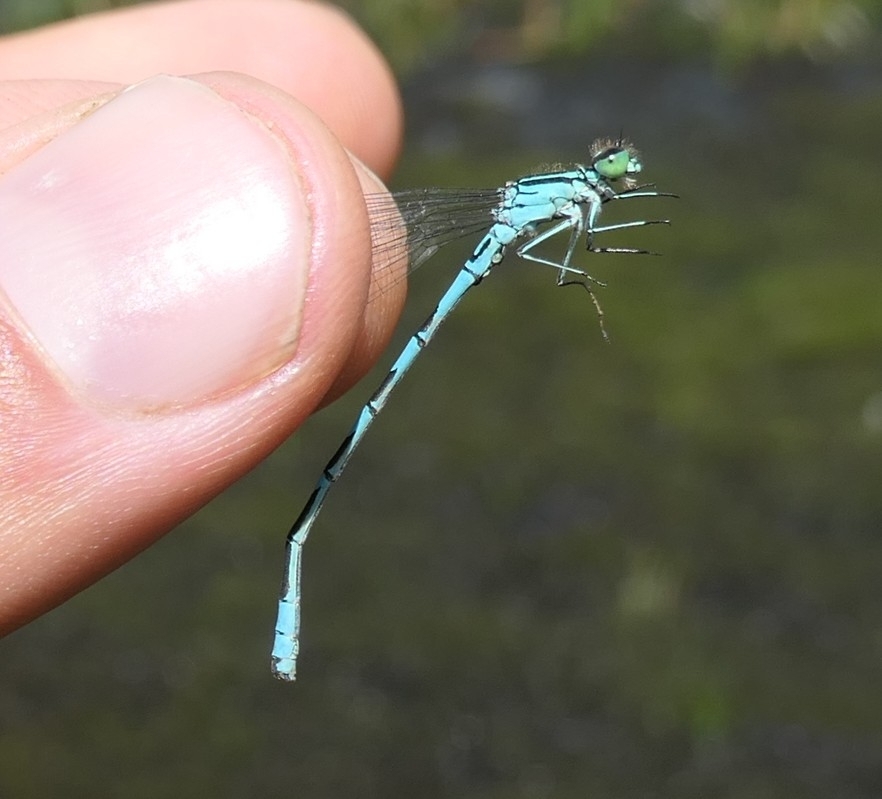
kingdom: Animalia
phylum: Arthropoda
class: Insecta
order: Odonata
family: Coenagrionidae
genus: Coenagrion
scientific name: Coenagrion hastulatum
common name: Spearhead bluet
